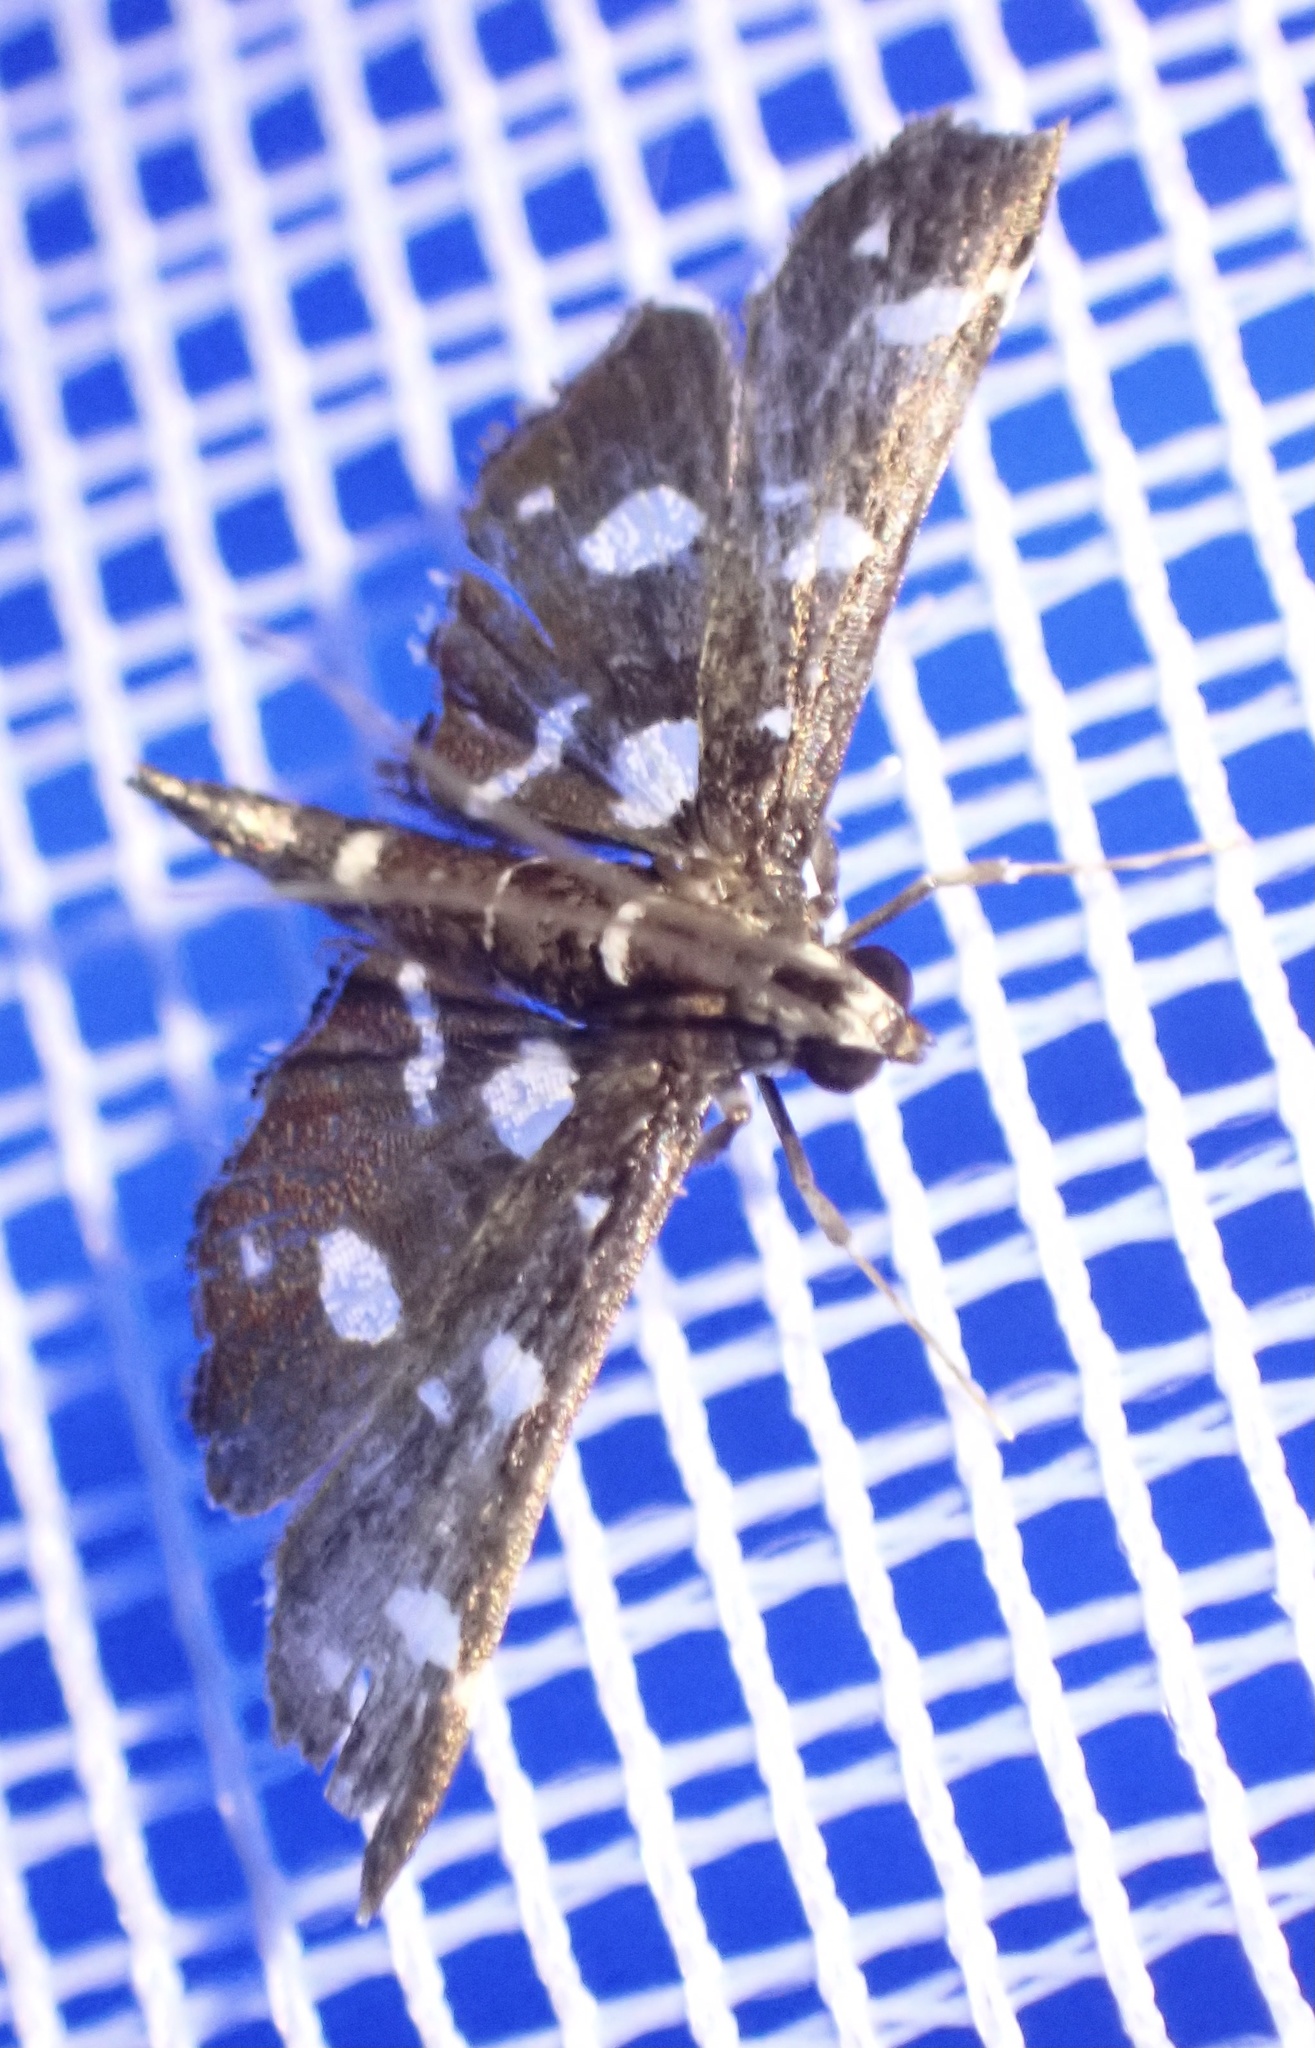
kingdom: Animalia
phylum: Arthropoda
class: Insecta
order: Lepidoptera
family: Crambidae
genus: Bocchoris
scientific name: Bocchoris inspersalis
